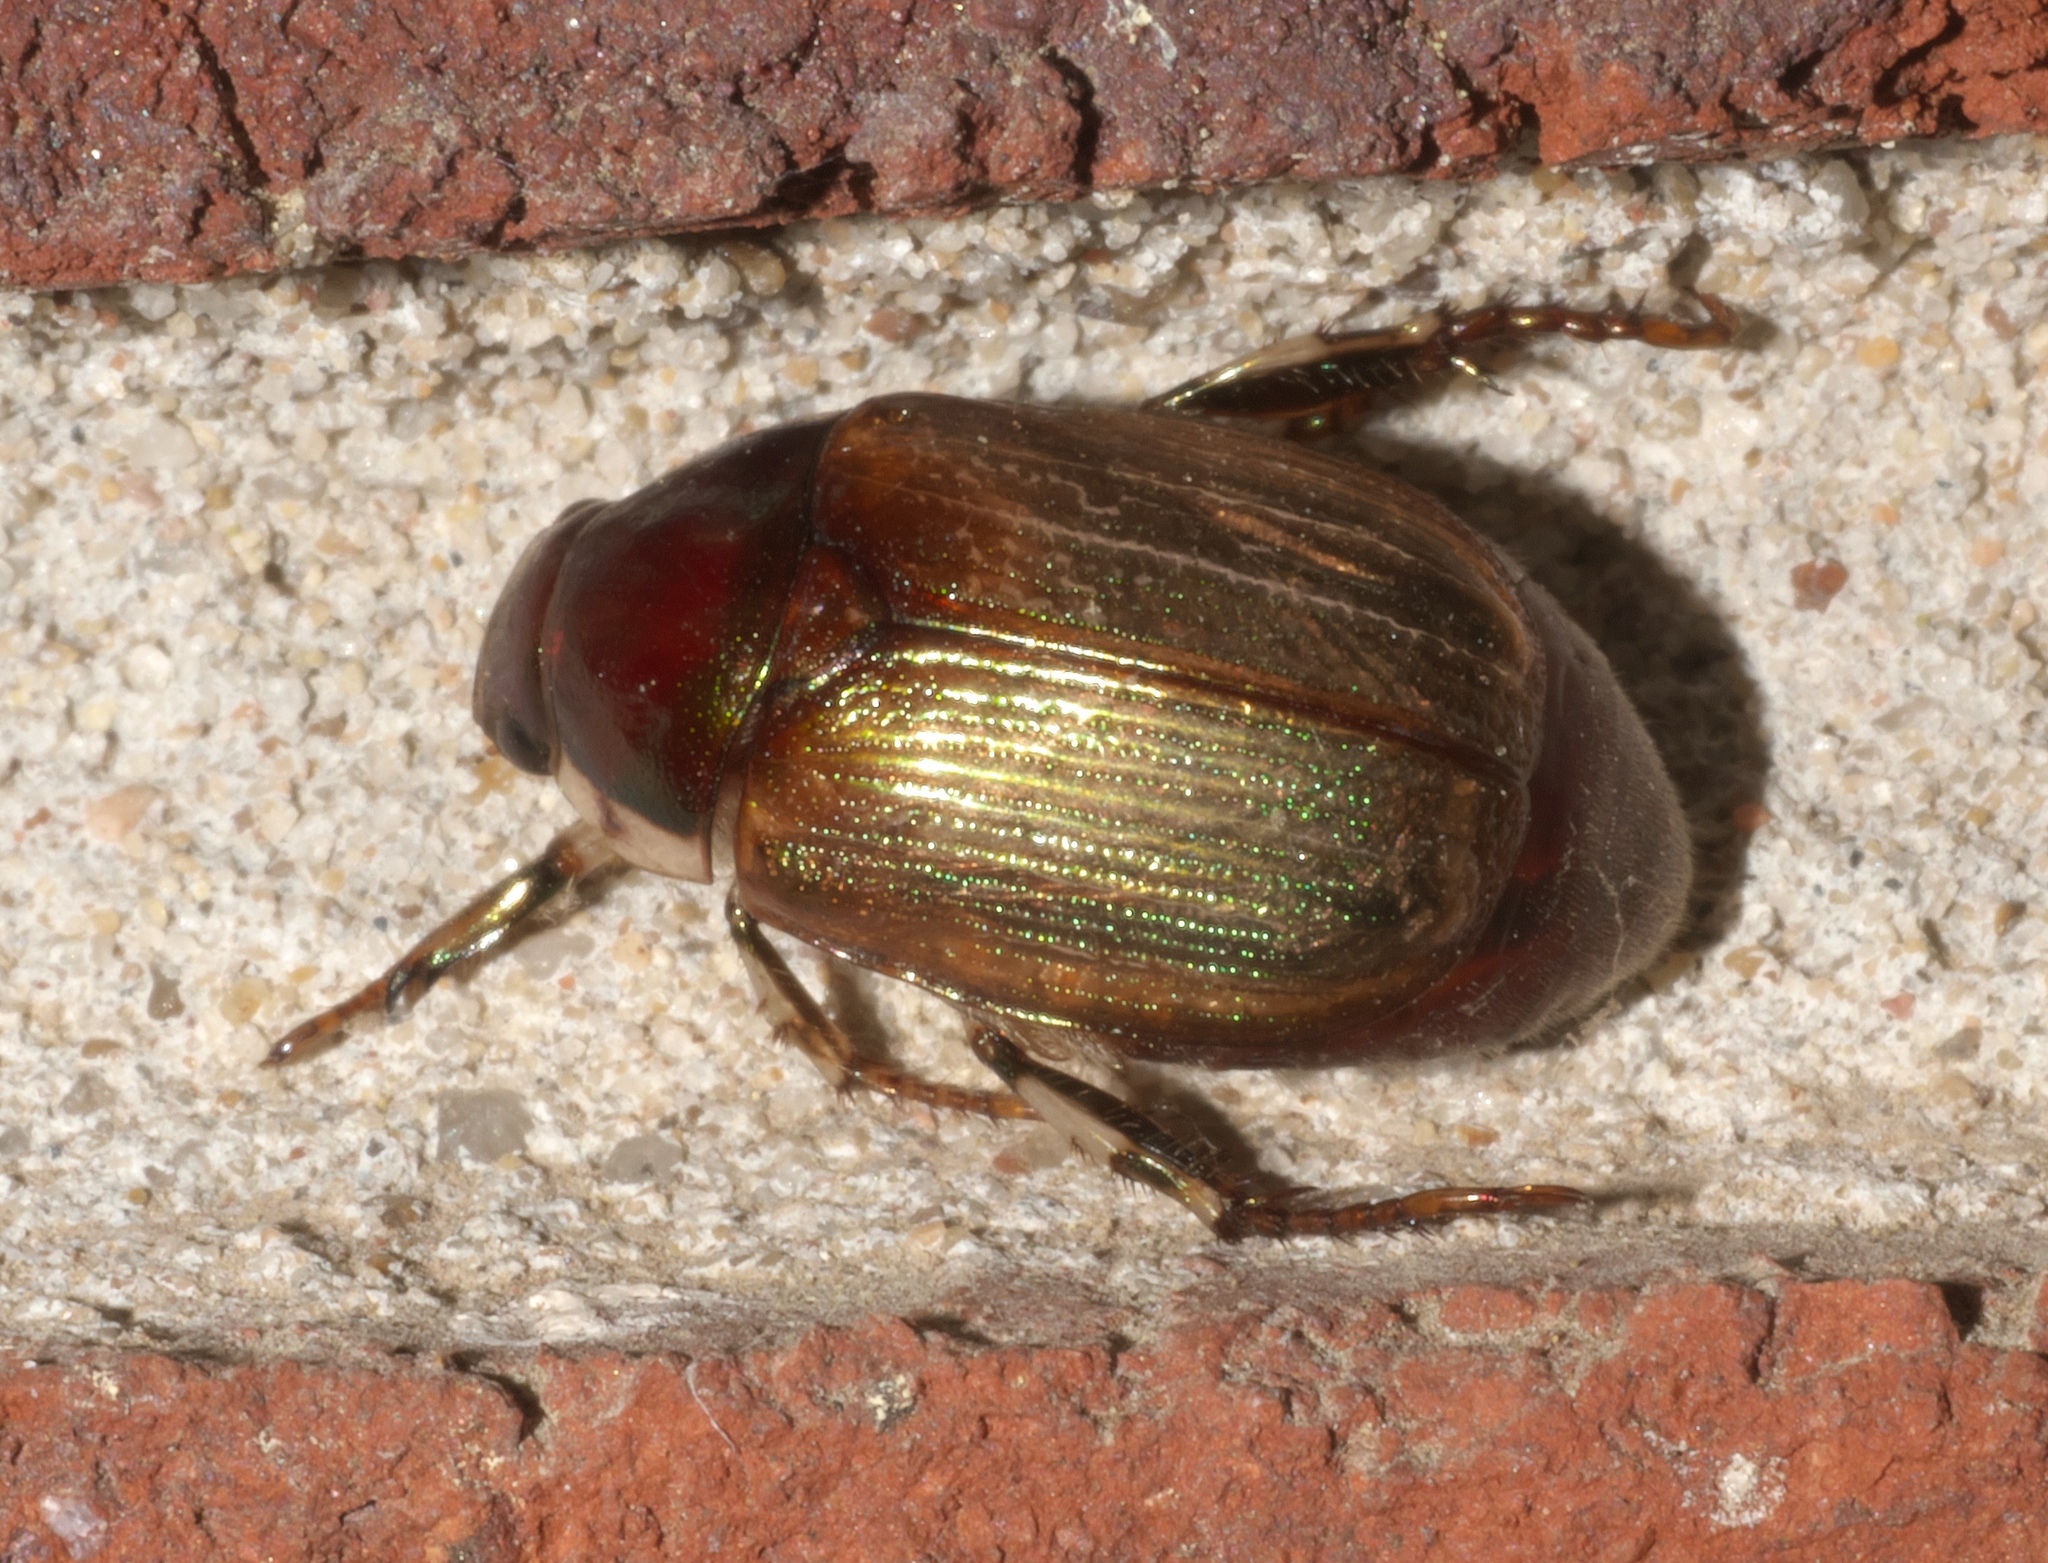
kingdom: Animalia
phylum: Arthropoda
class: Insecta
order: Coleoptera
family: Scarabaeidae
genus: Callistethus
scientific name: Callistethus marginatus
